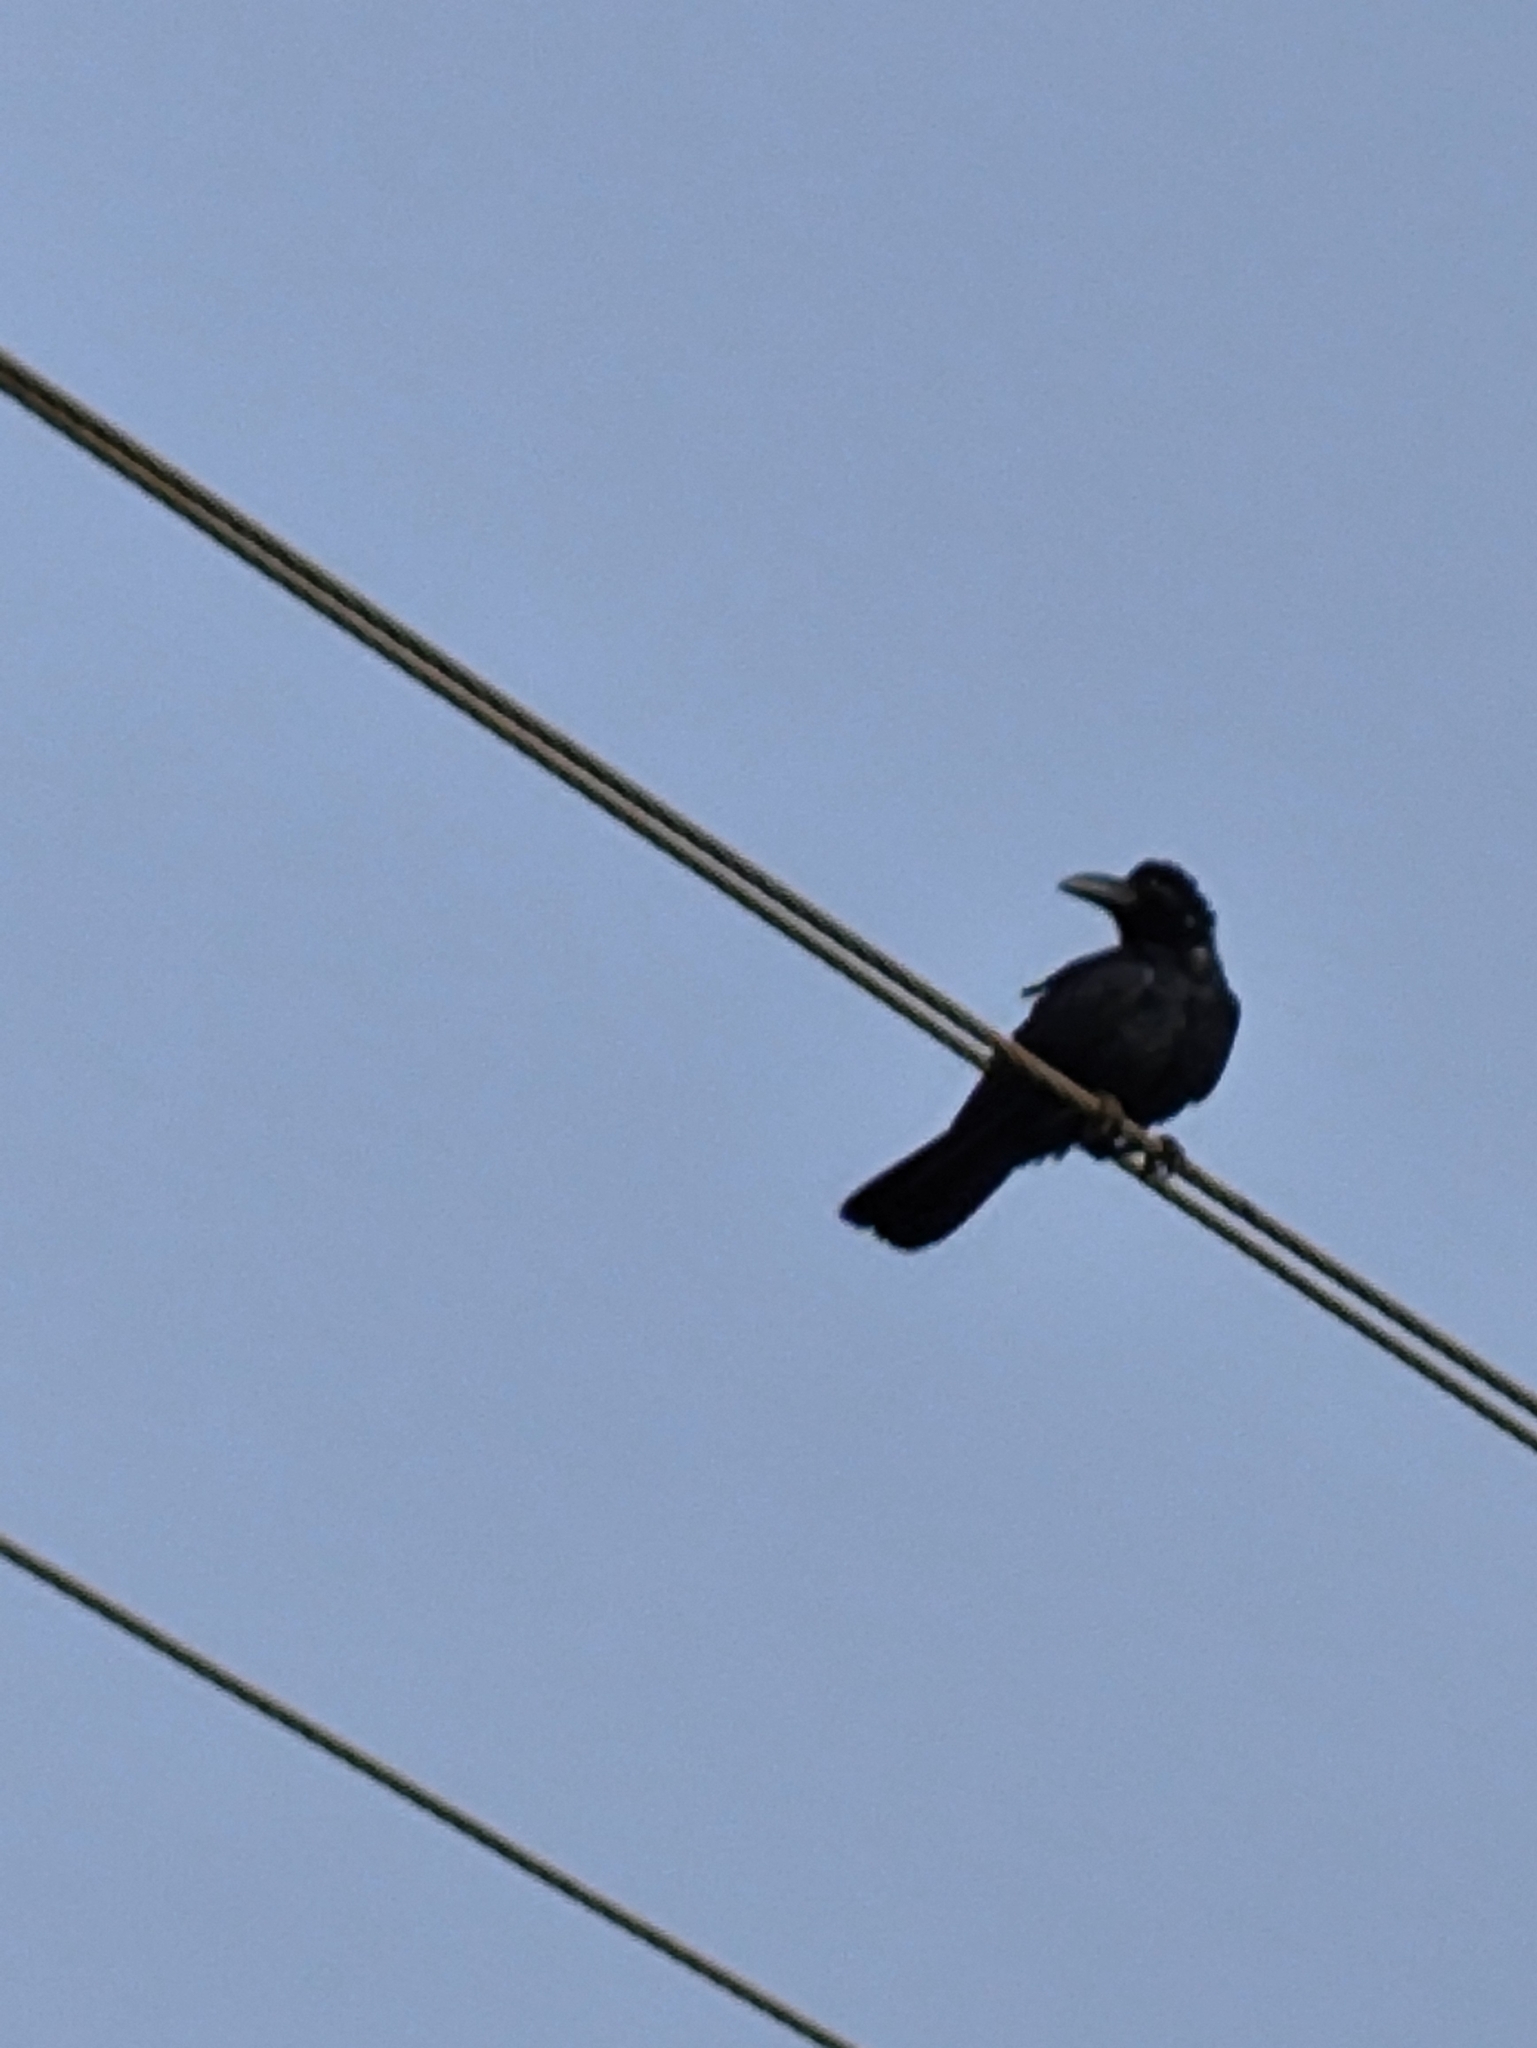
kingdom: Animalia
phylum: Chordata
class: Aves
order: Passeriformes
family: Corvidae
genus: Corvus
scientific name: Corvus macrorhynchos
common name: Large-billed crow
